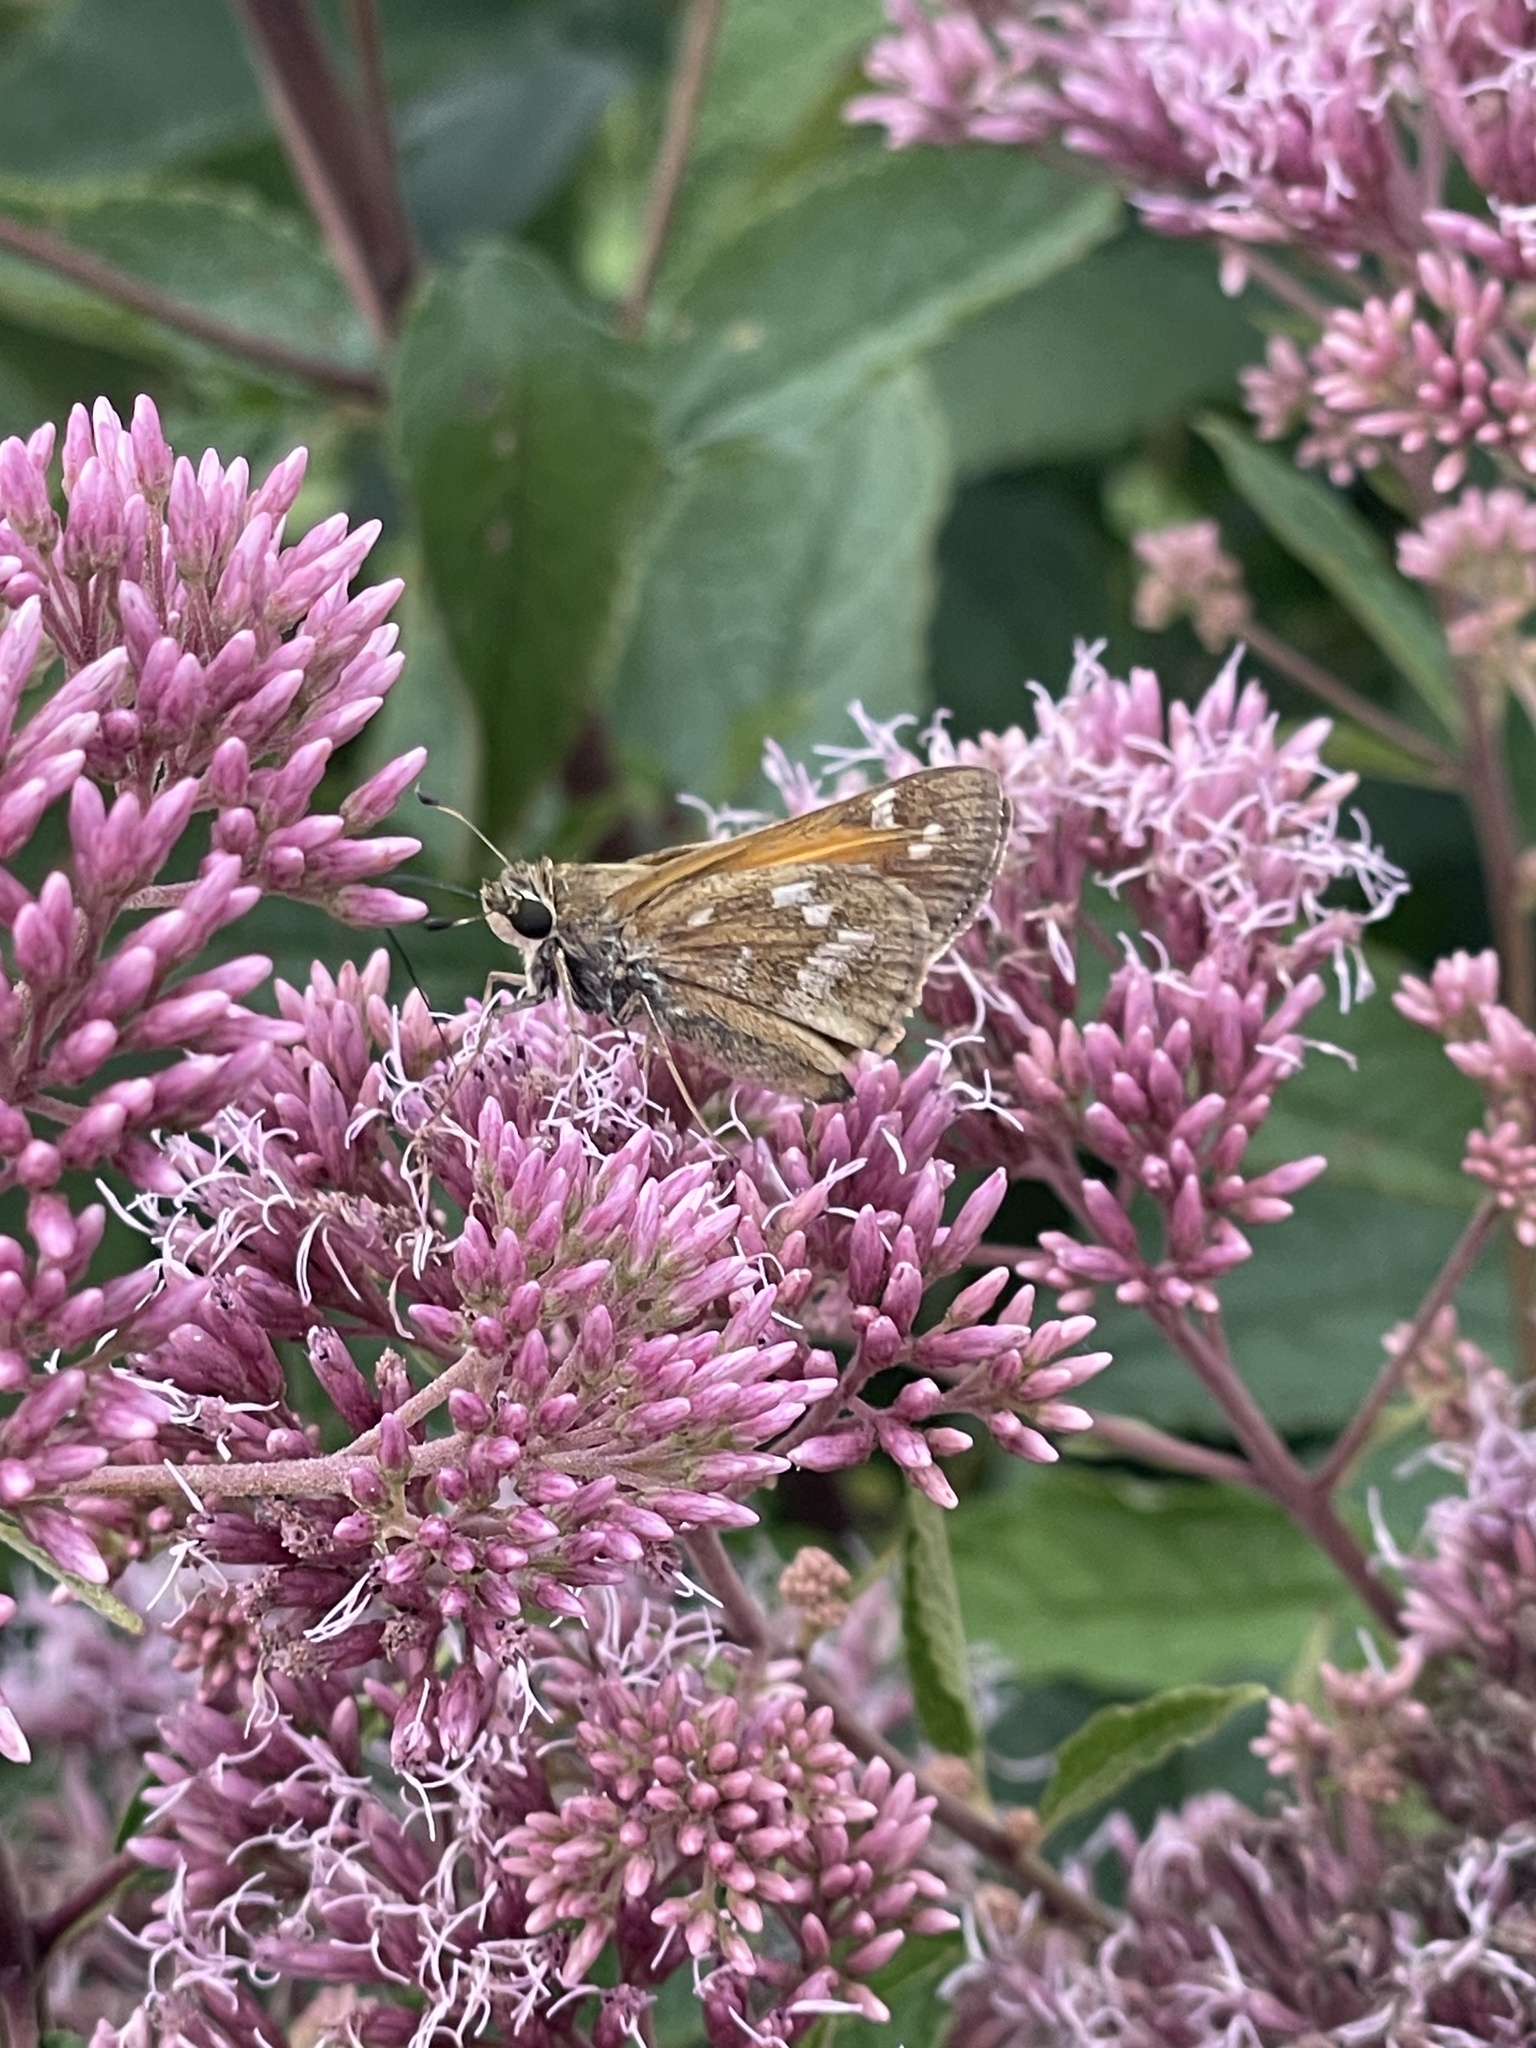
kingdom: Animalia
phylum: Arthropoda
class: Insecta
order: Lepidoptera
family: Hesperiidae
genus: Atalopedes
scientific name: Atalopedes
